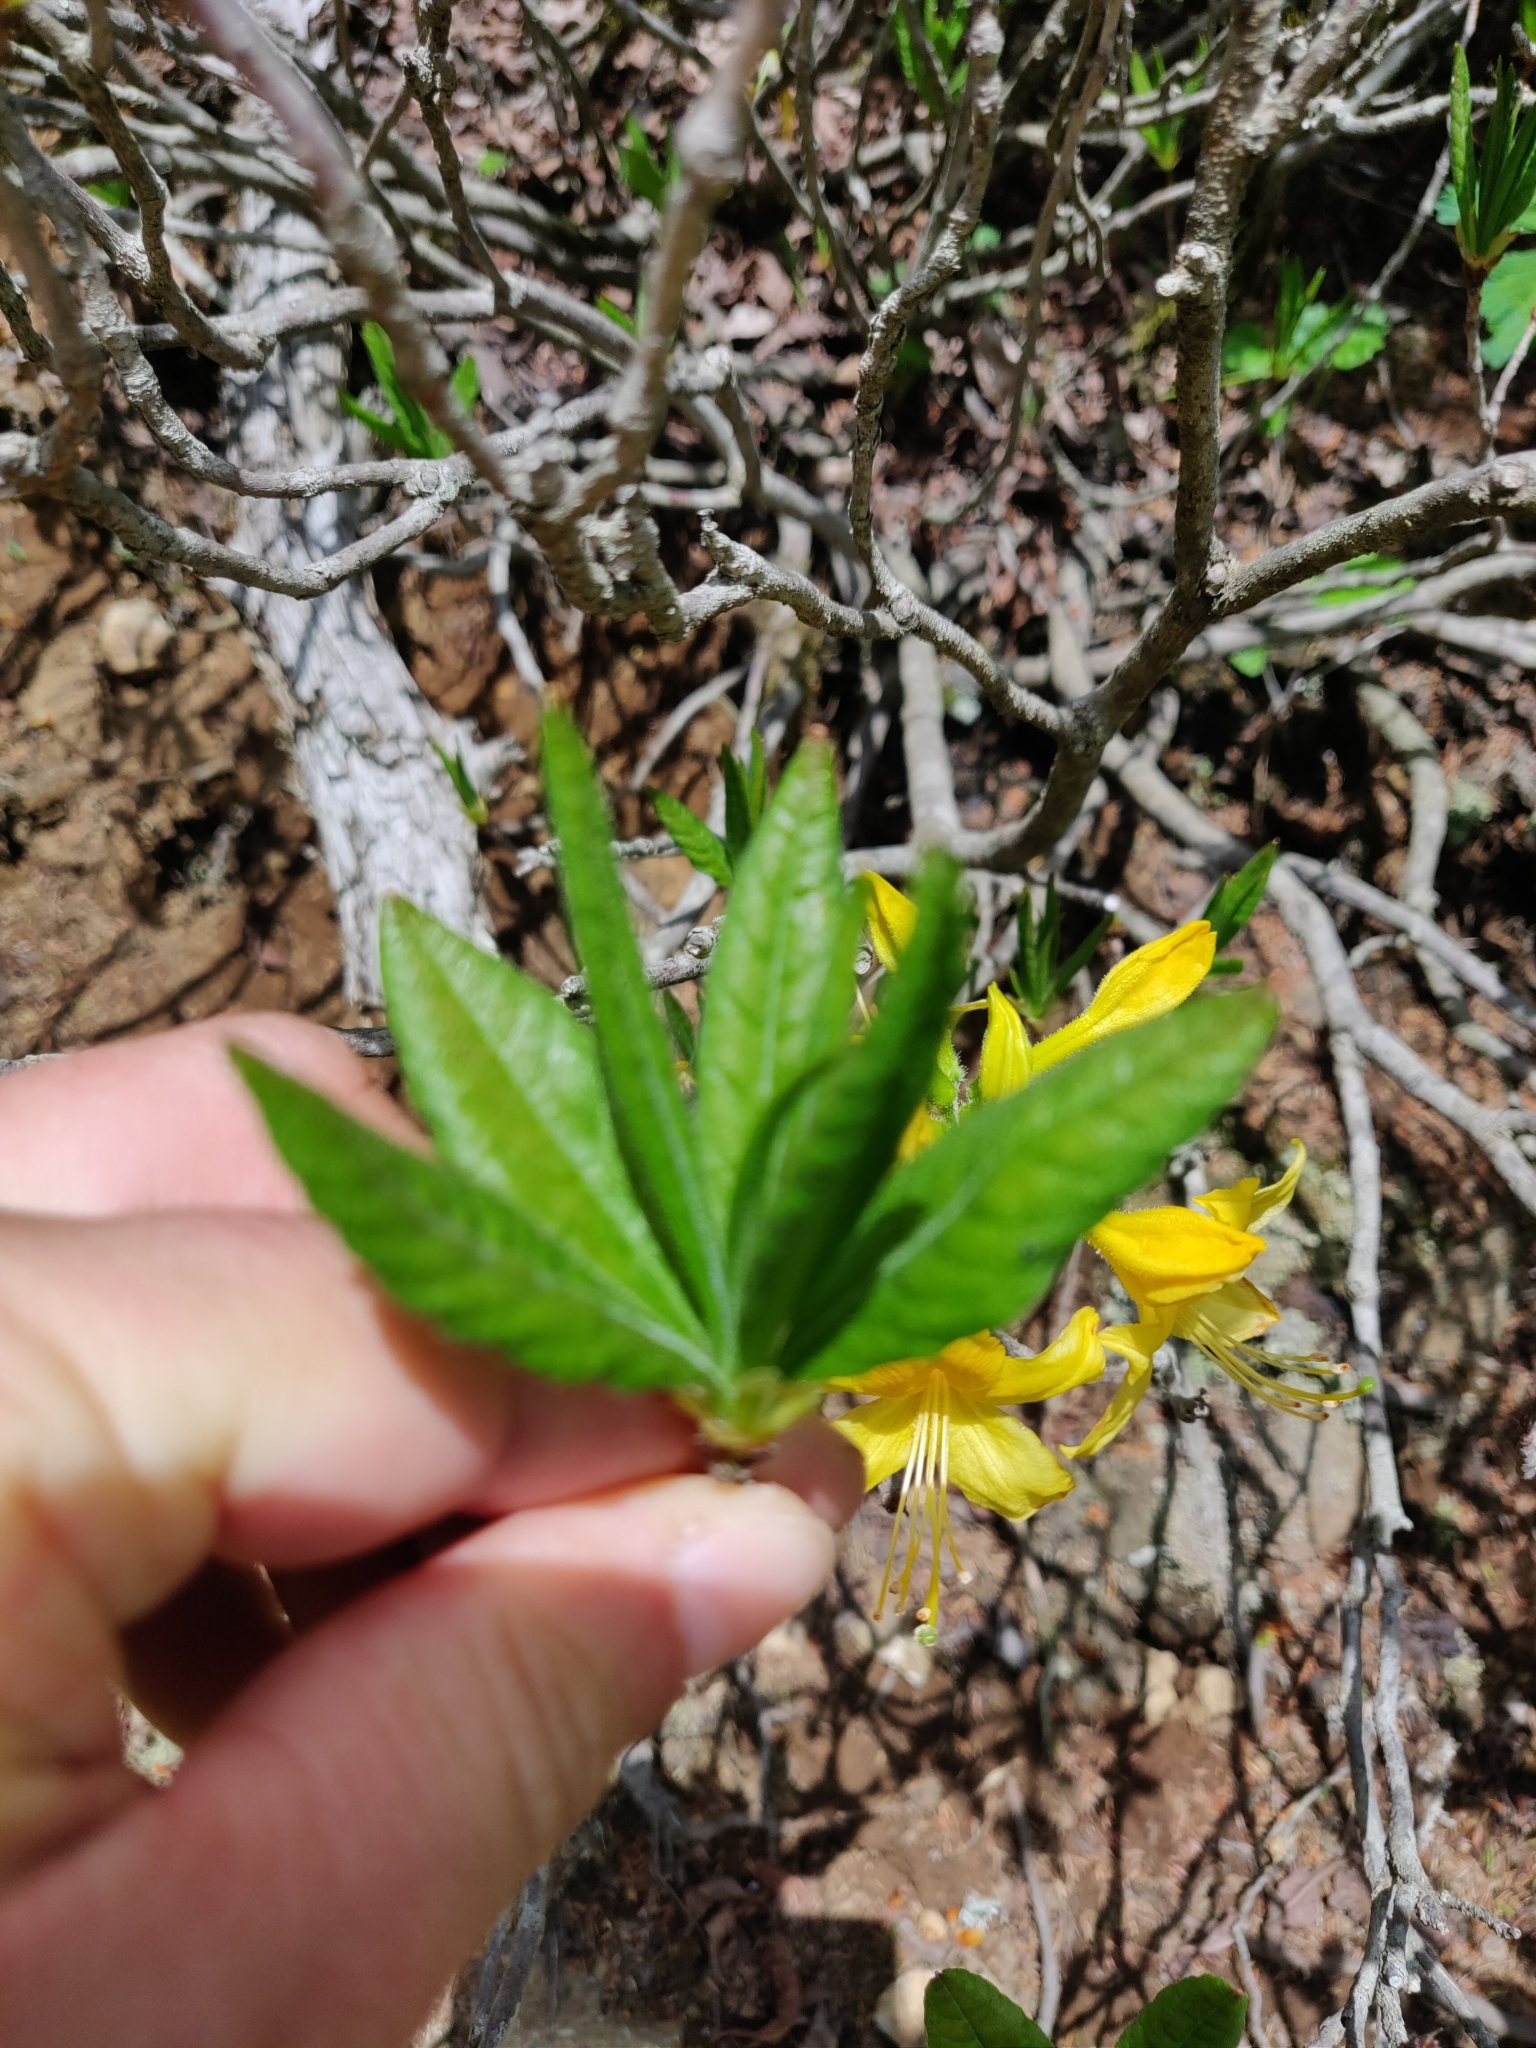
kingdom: Plantae
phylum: Tracheophyta
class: Magnoliopsida
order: Ericales
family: Ericaceae
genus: Rhododendron
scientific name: Rhododendron luteum
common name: Yellow azalea
